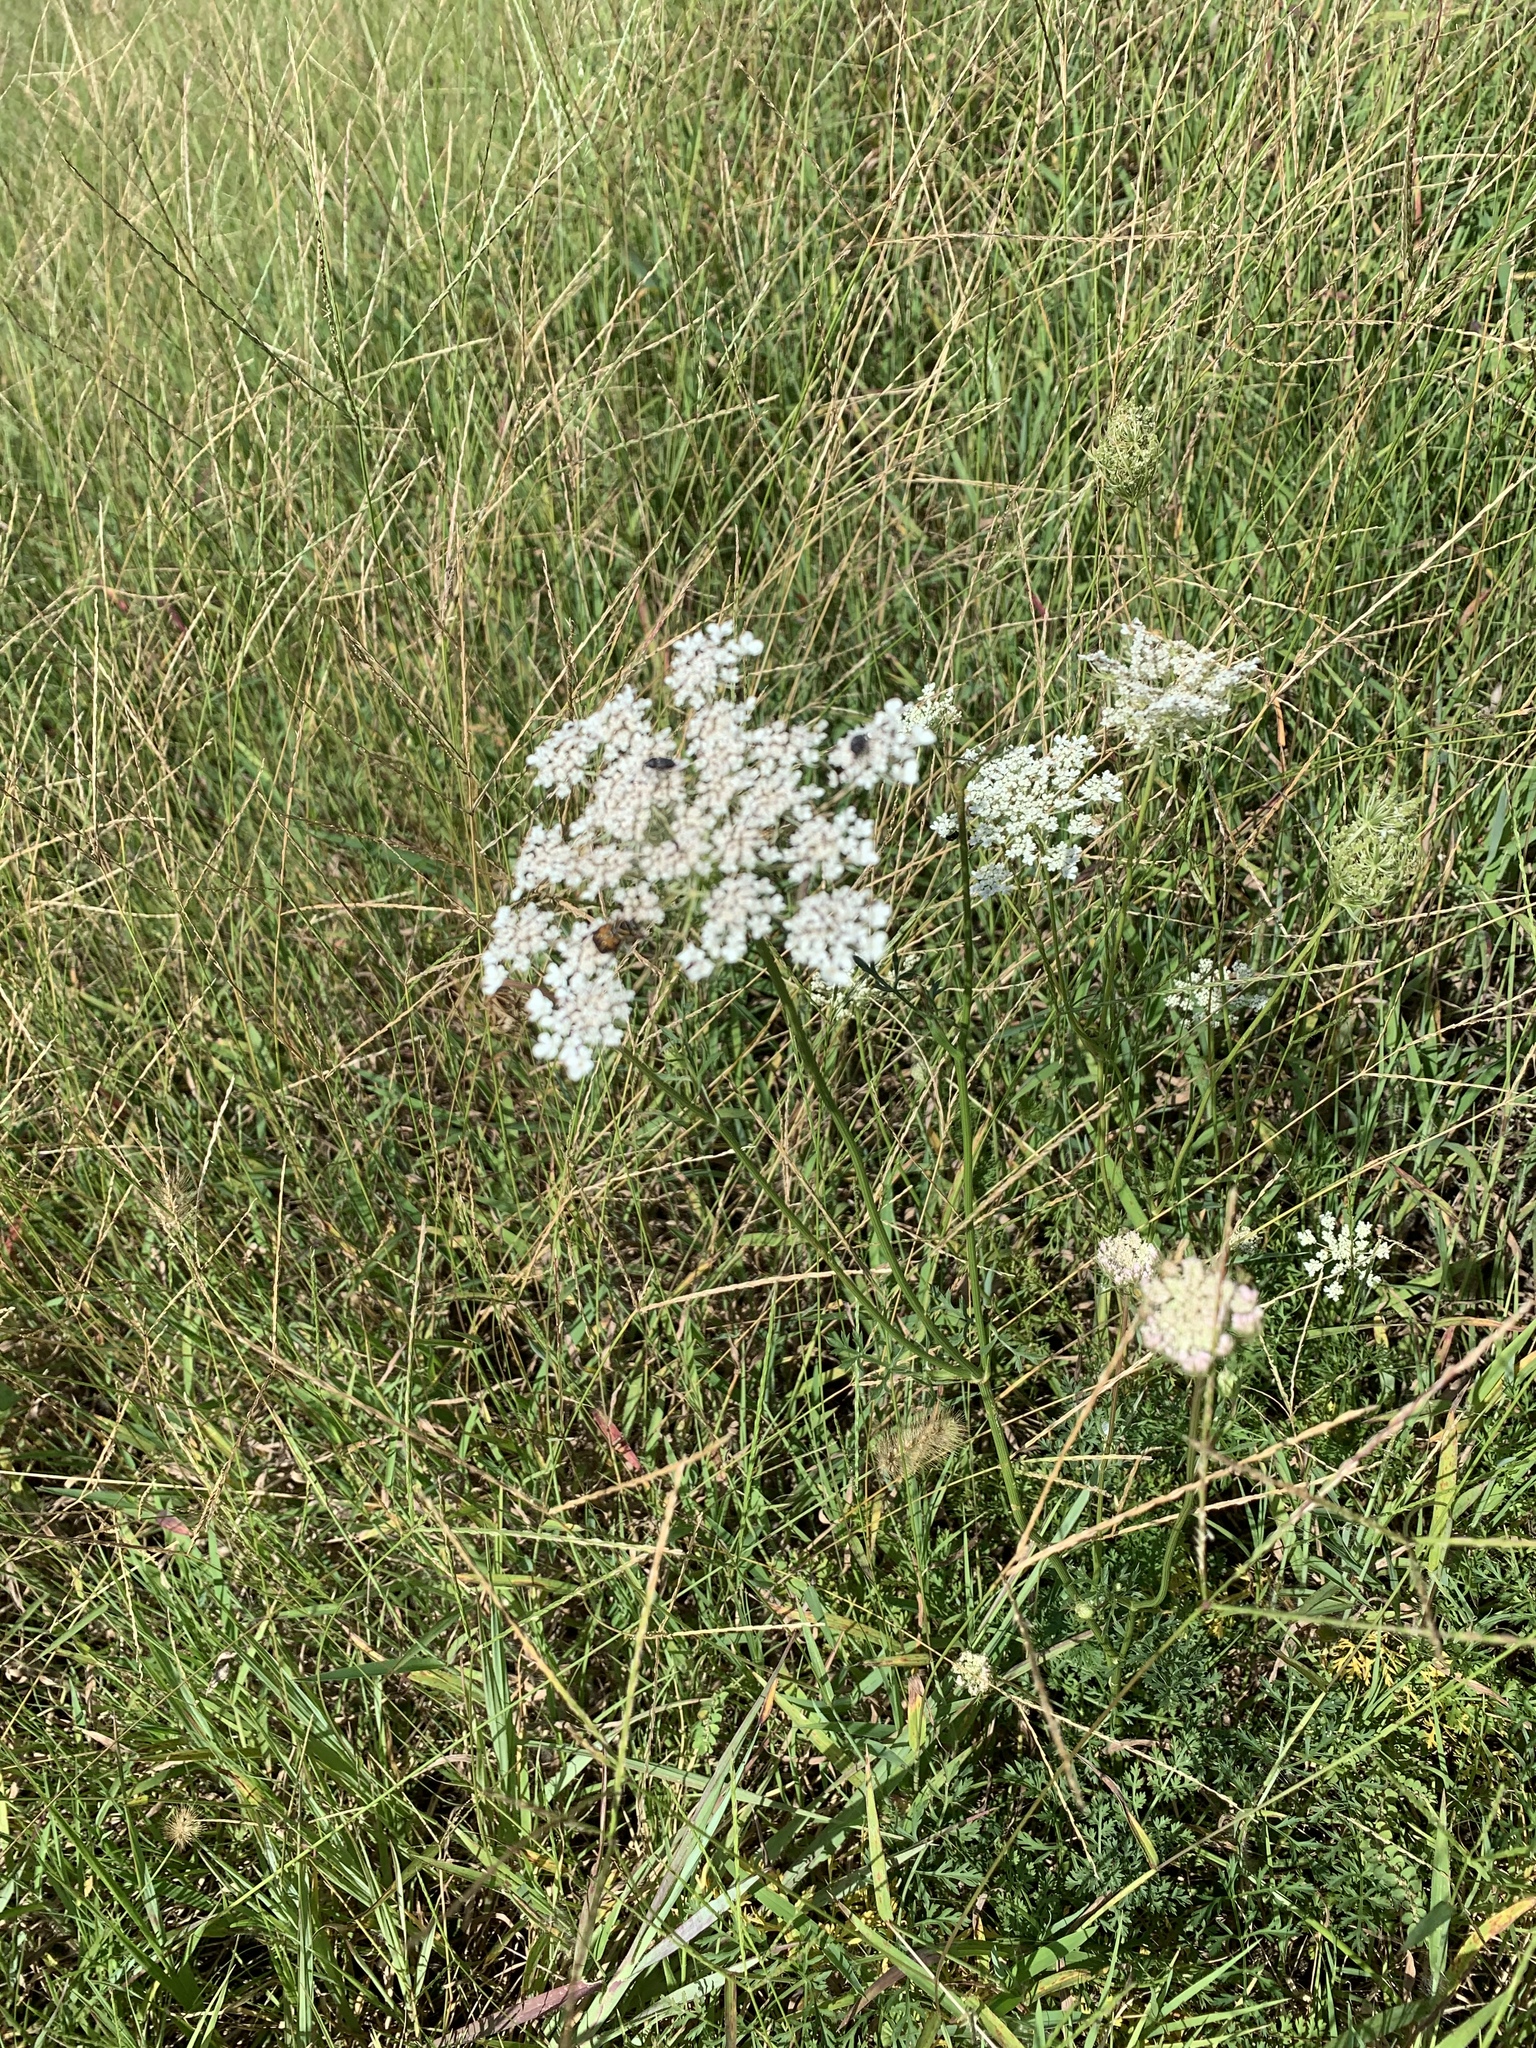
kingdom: Plantae
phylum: Tracheophyta
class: Magnoliopsida
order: Apiales
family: Apiaceae
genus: Daucus
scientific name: Daucus carota
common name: Wild carrot
